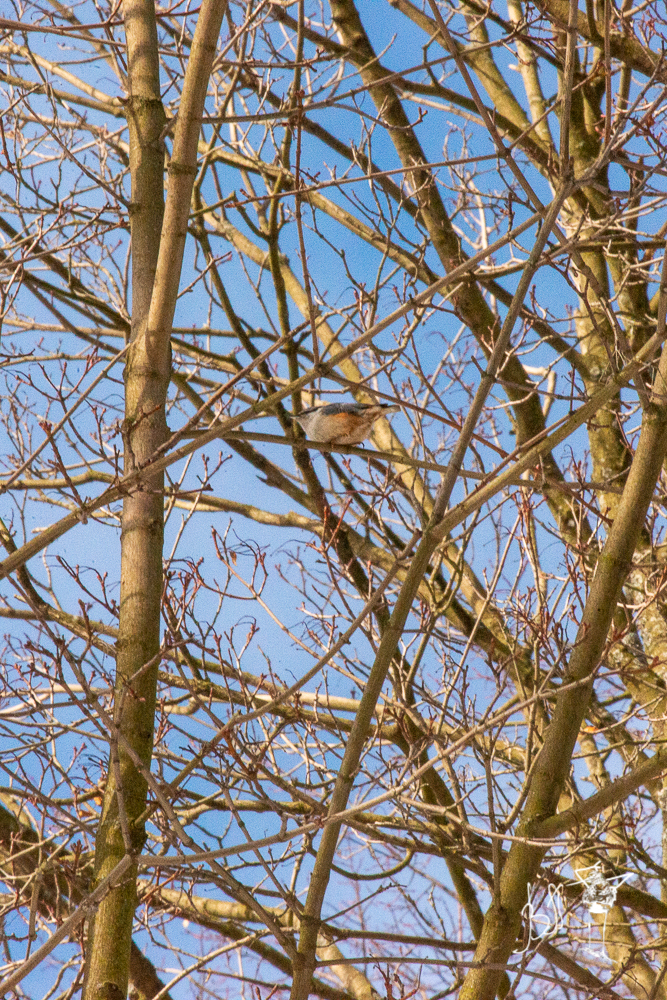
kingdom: Animalia
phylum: Chordata
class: Aves
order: Passeriformes
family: Sittidae
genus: Sitta
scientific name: Sitta europaea
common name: Eurasian nuthatch
